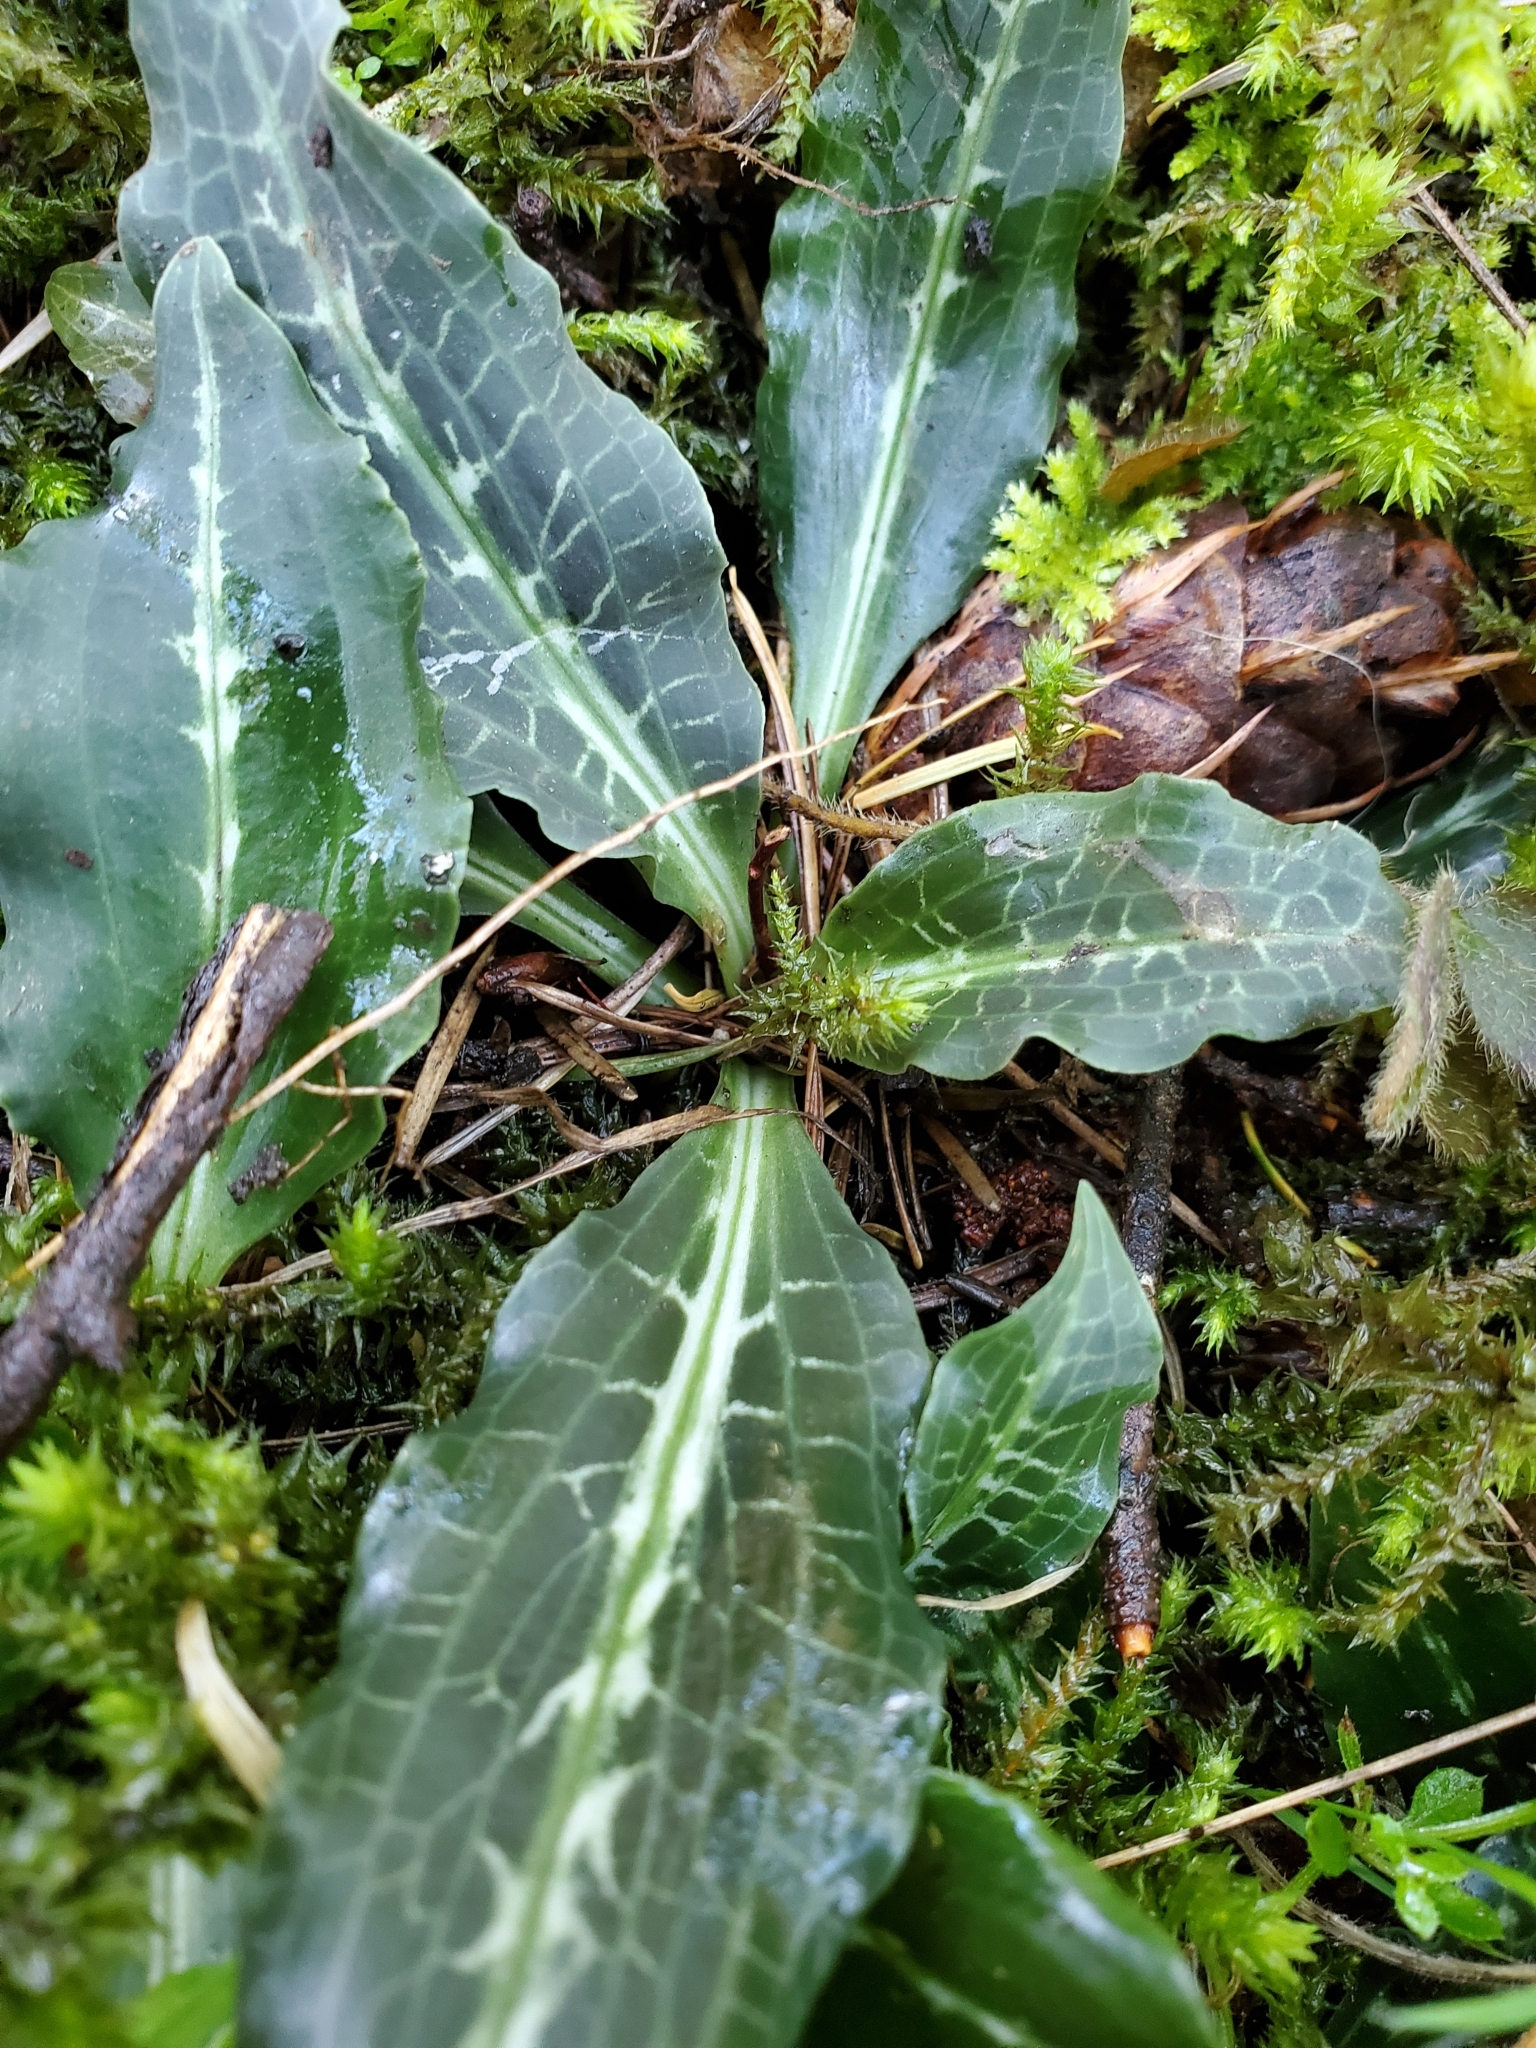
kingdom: Plantae
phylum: Tracheophyta
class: Liliopsida
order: Asparagales
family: Orchidaceae
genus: Goodyera
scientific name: Goodyera oblongifolia
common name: Giant rattlesnake-plantain
